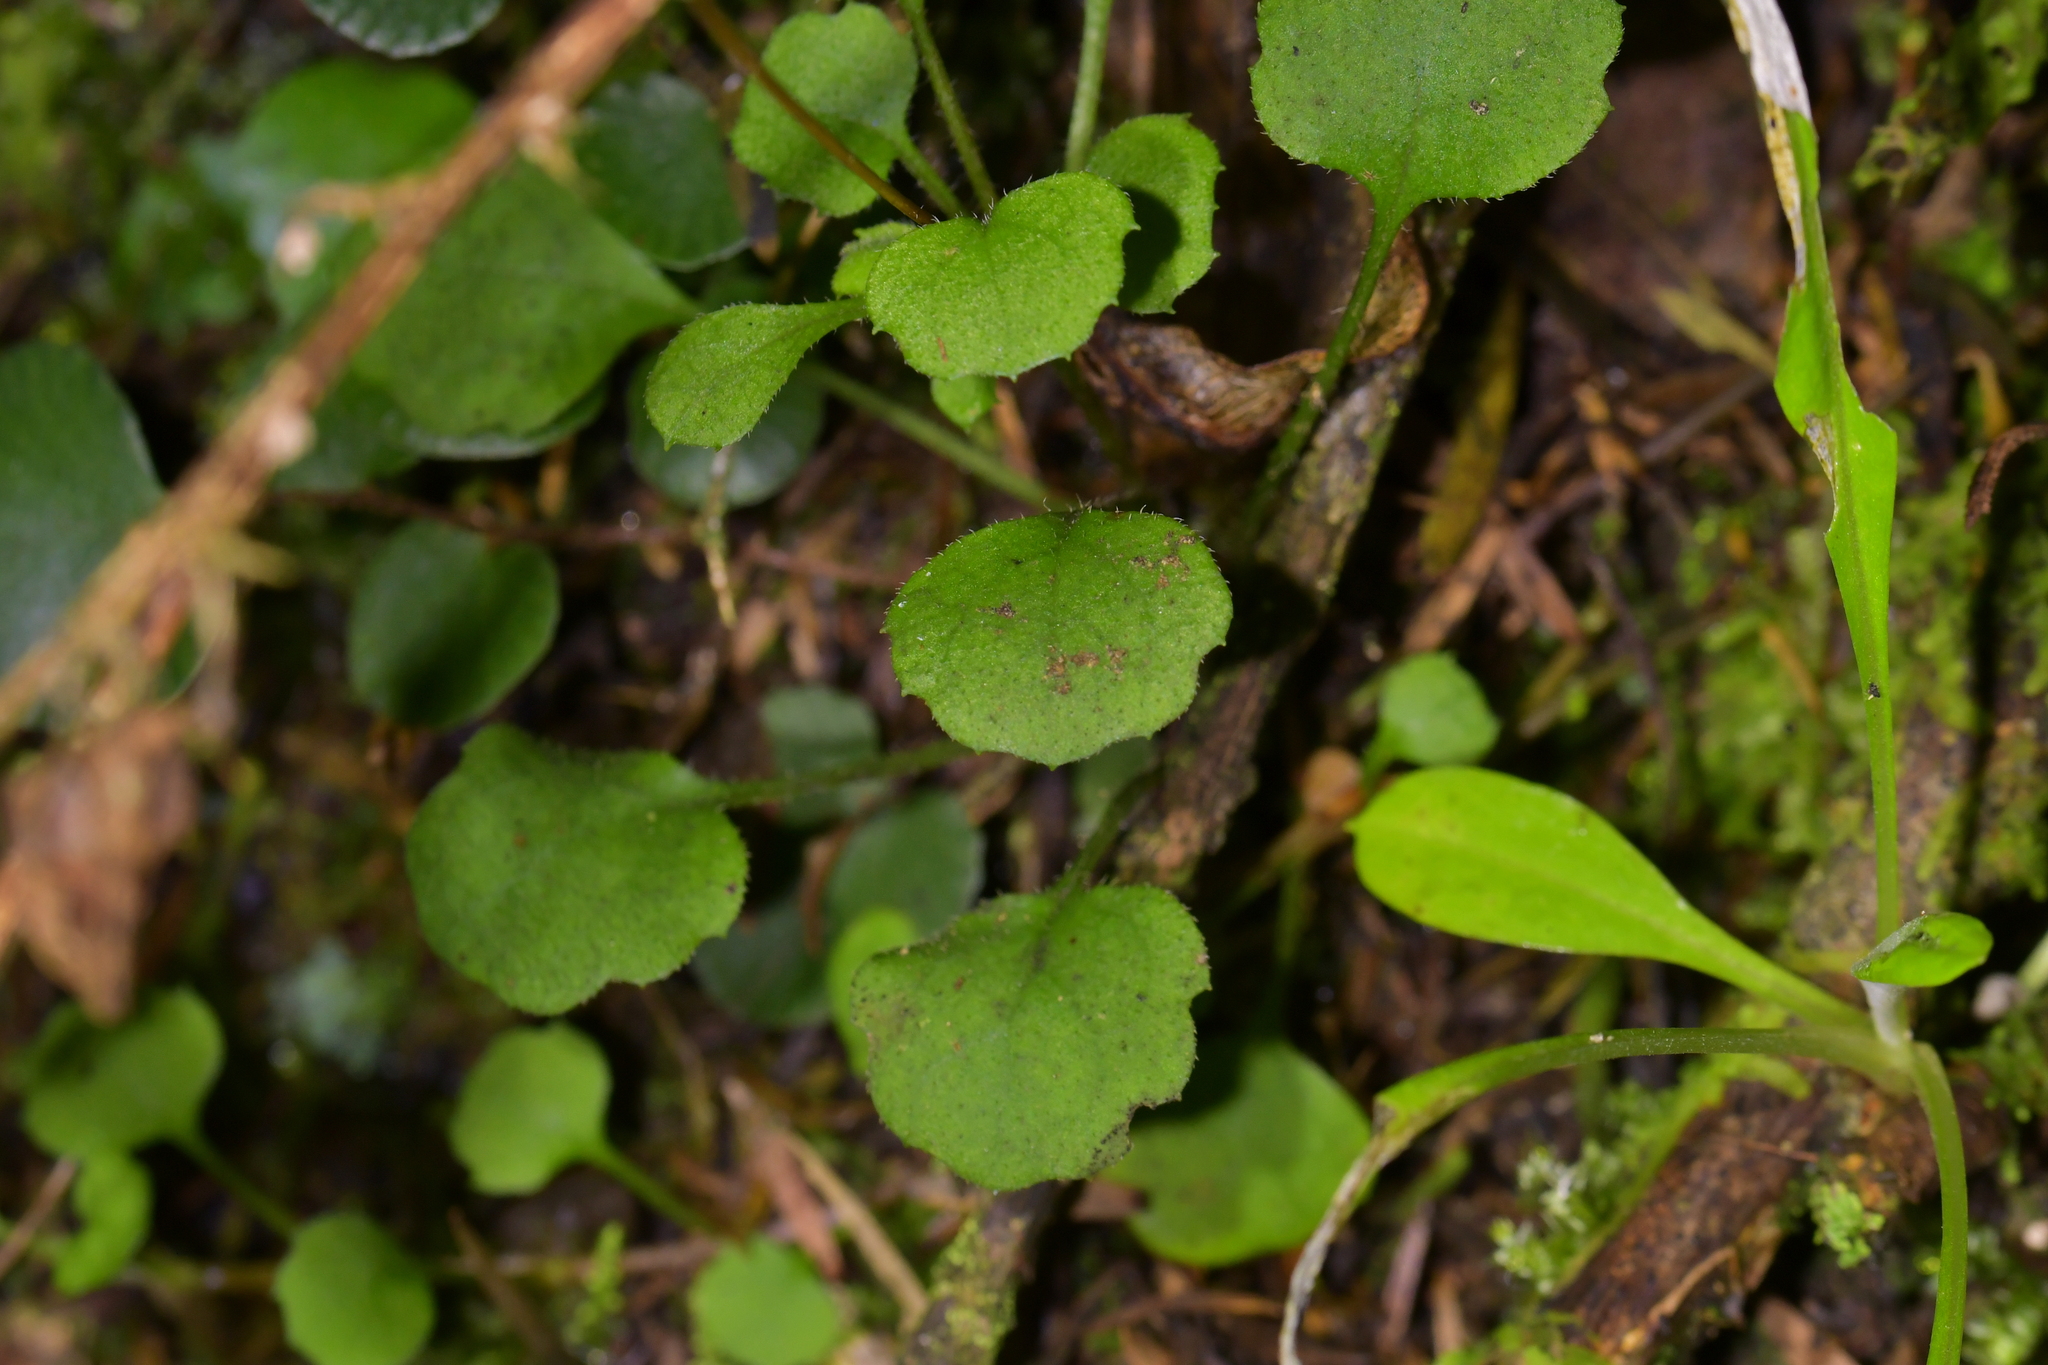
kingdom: Plantae
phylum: Tracheophyta
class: Magnoliopsida
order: Asterales
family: Asteraceae
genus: Lagenophora
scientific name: Lagenophora strangulata
